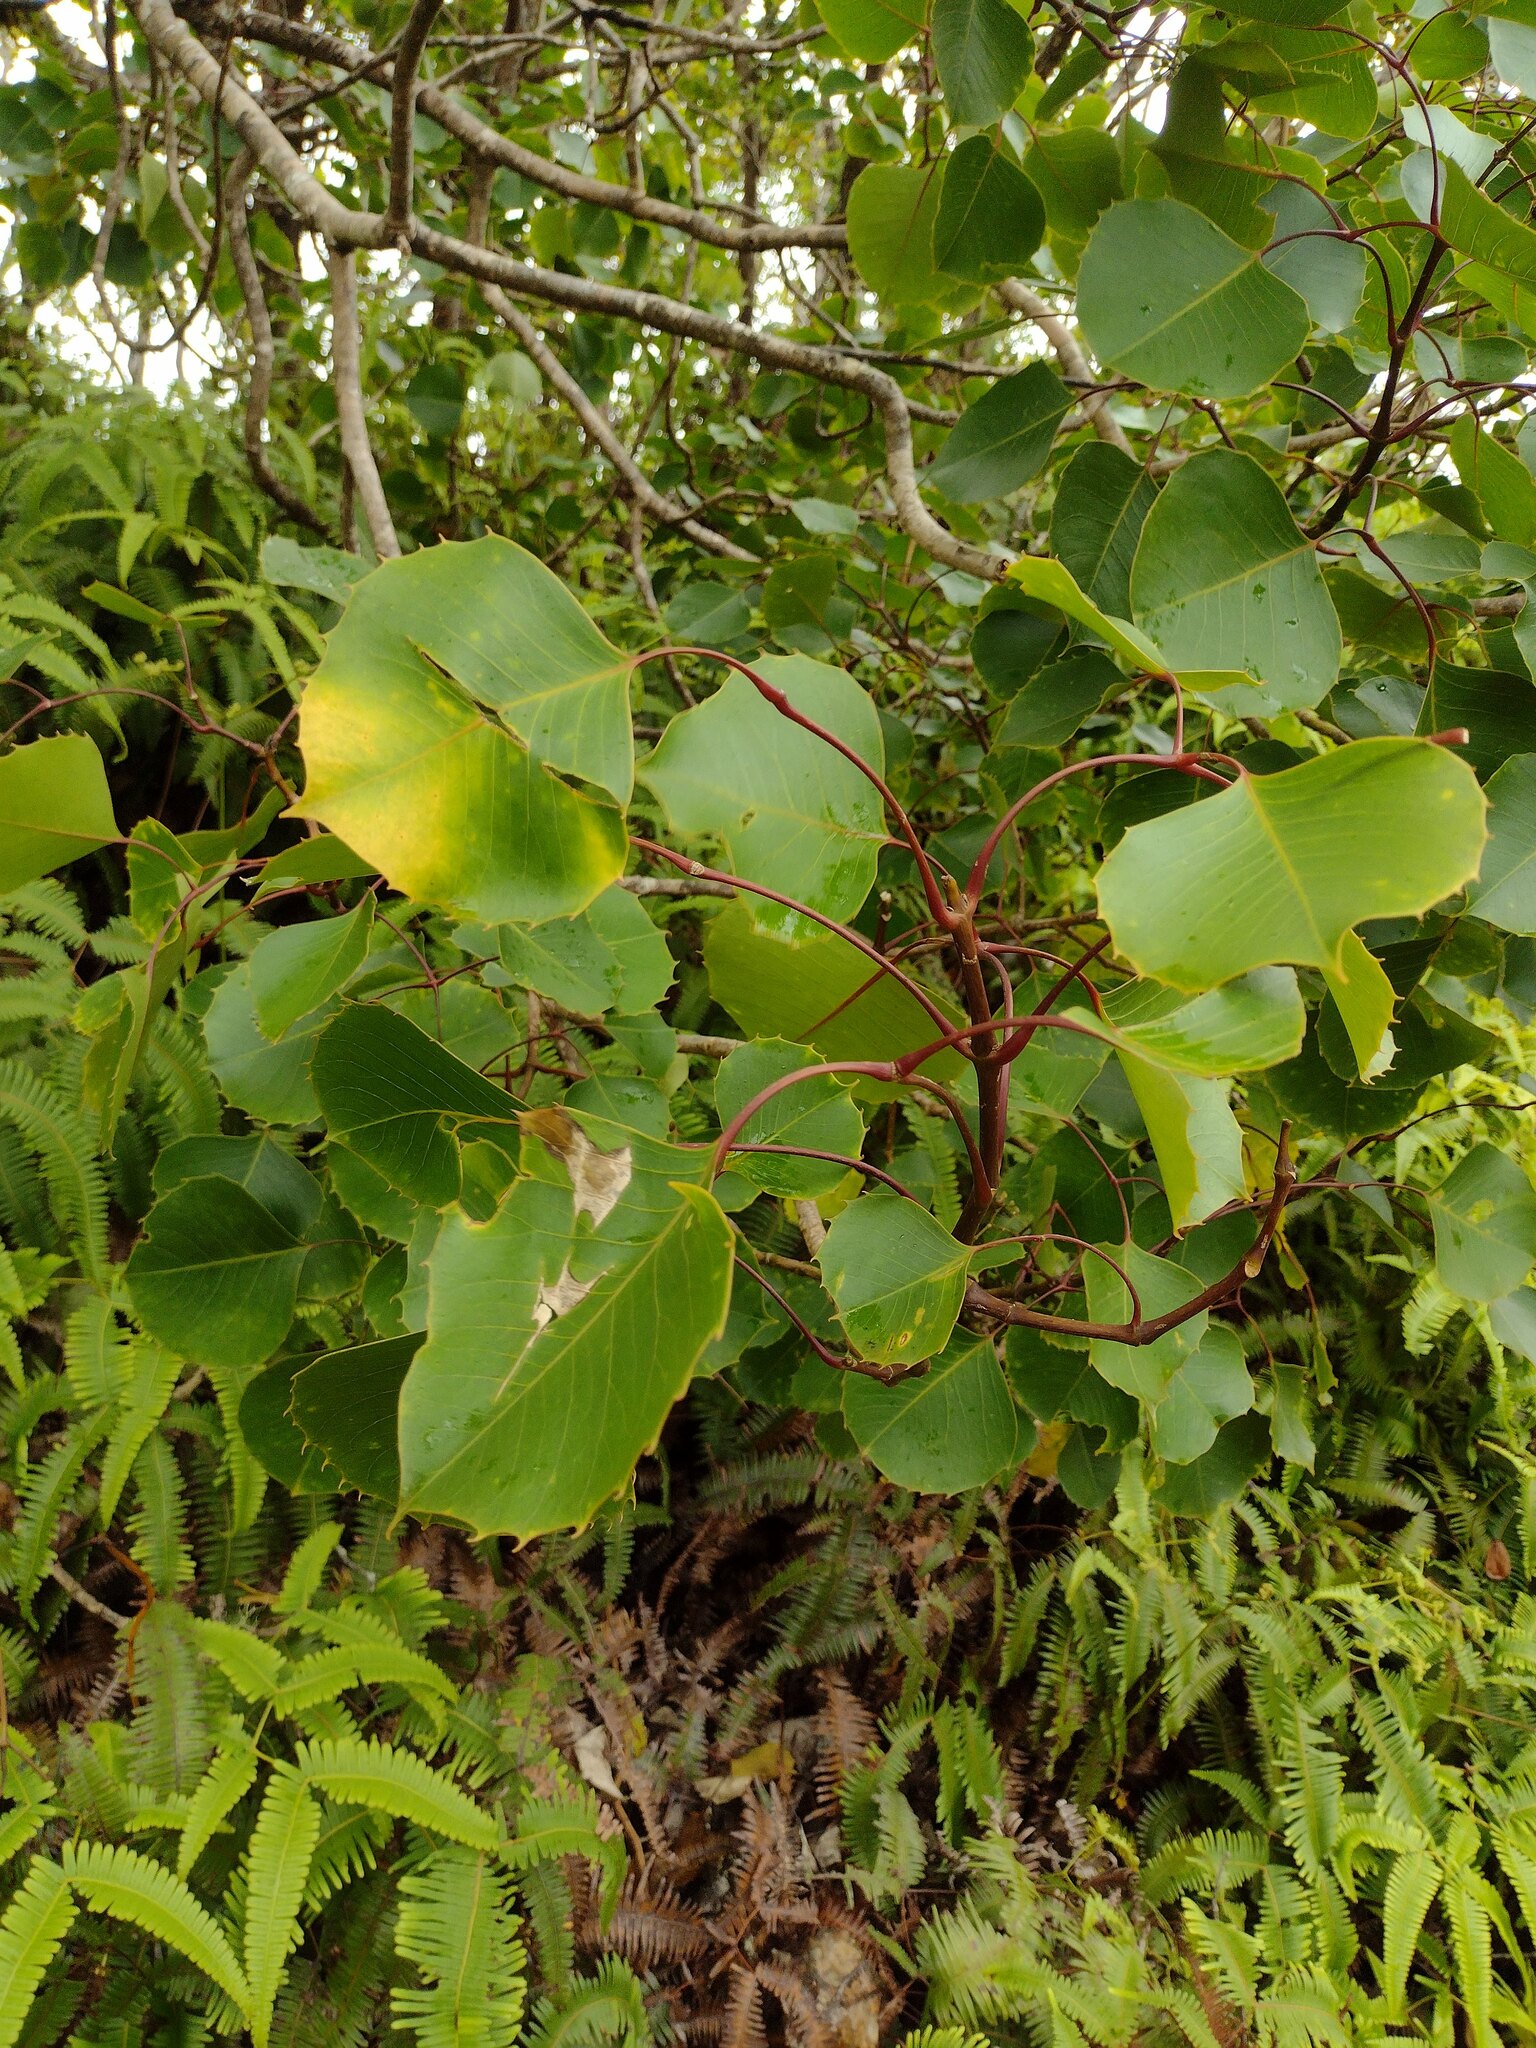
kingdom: Plantae
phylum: Tracheophyta
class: Magnoliopsida
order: Apiales
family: Araliaceae
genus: Cheirodendron
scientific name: Cheirodendron fauriei
